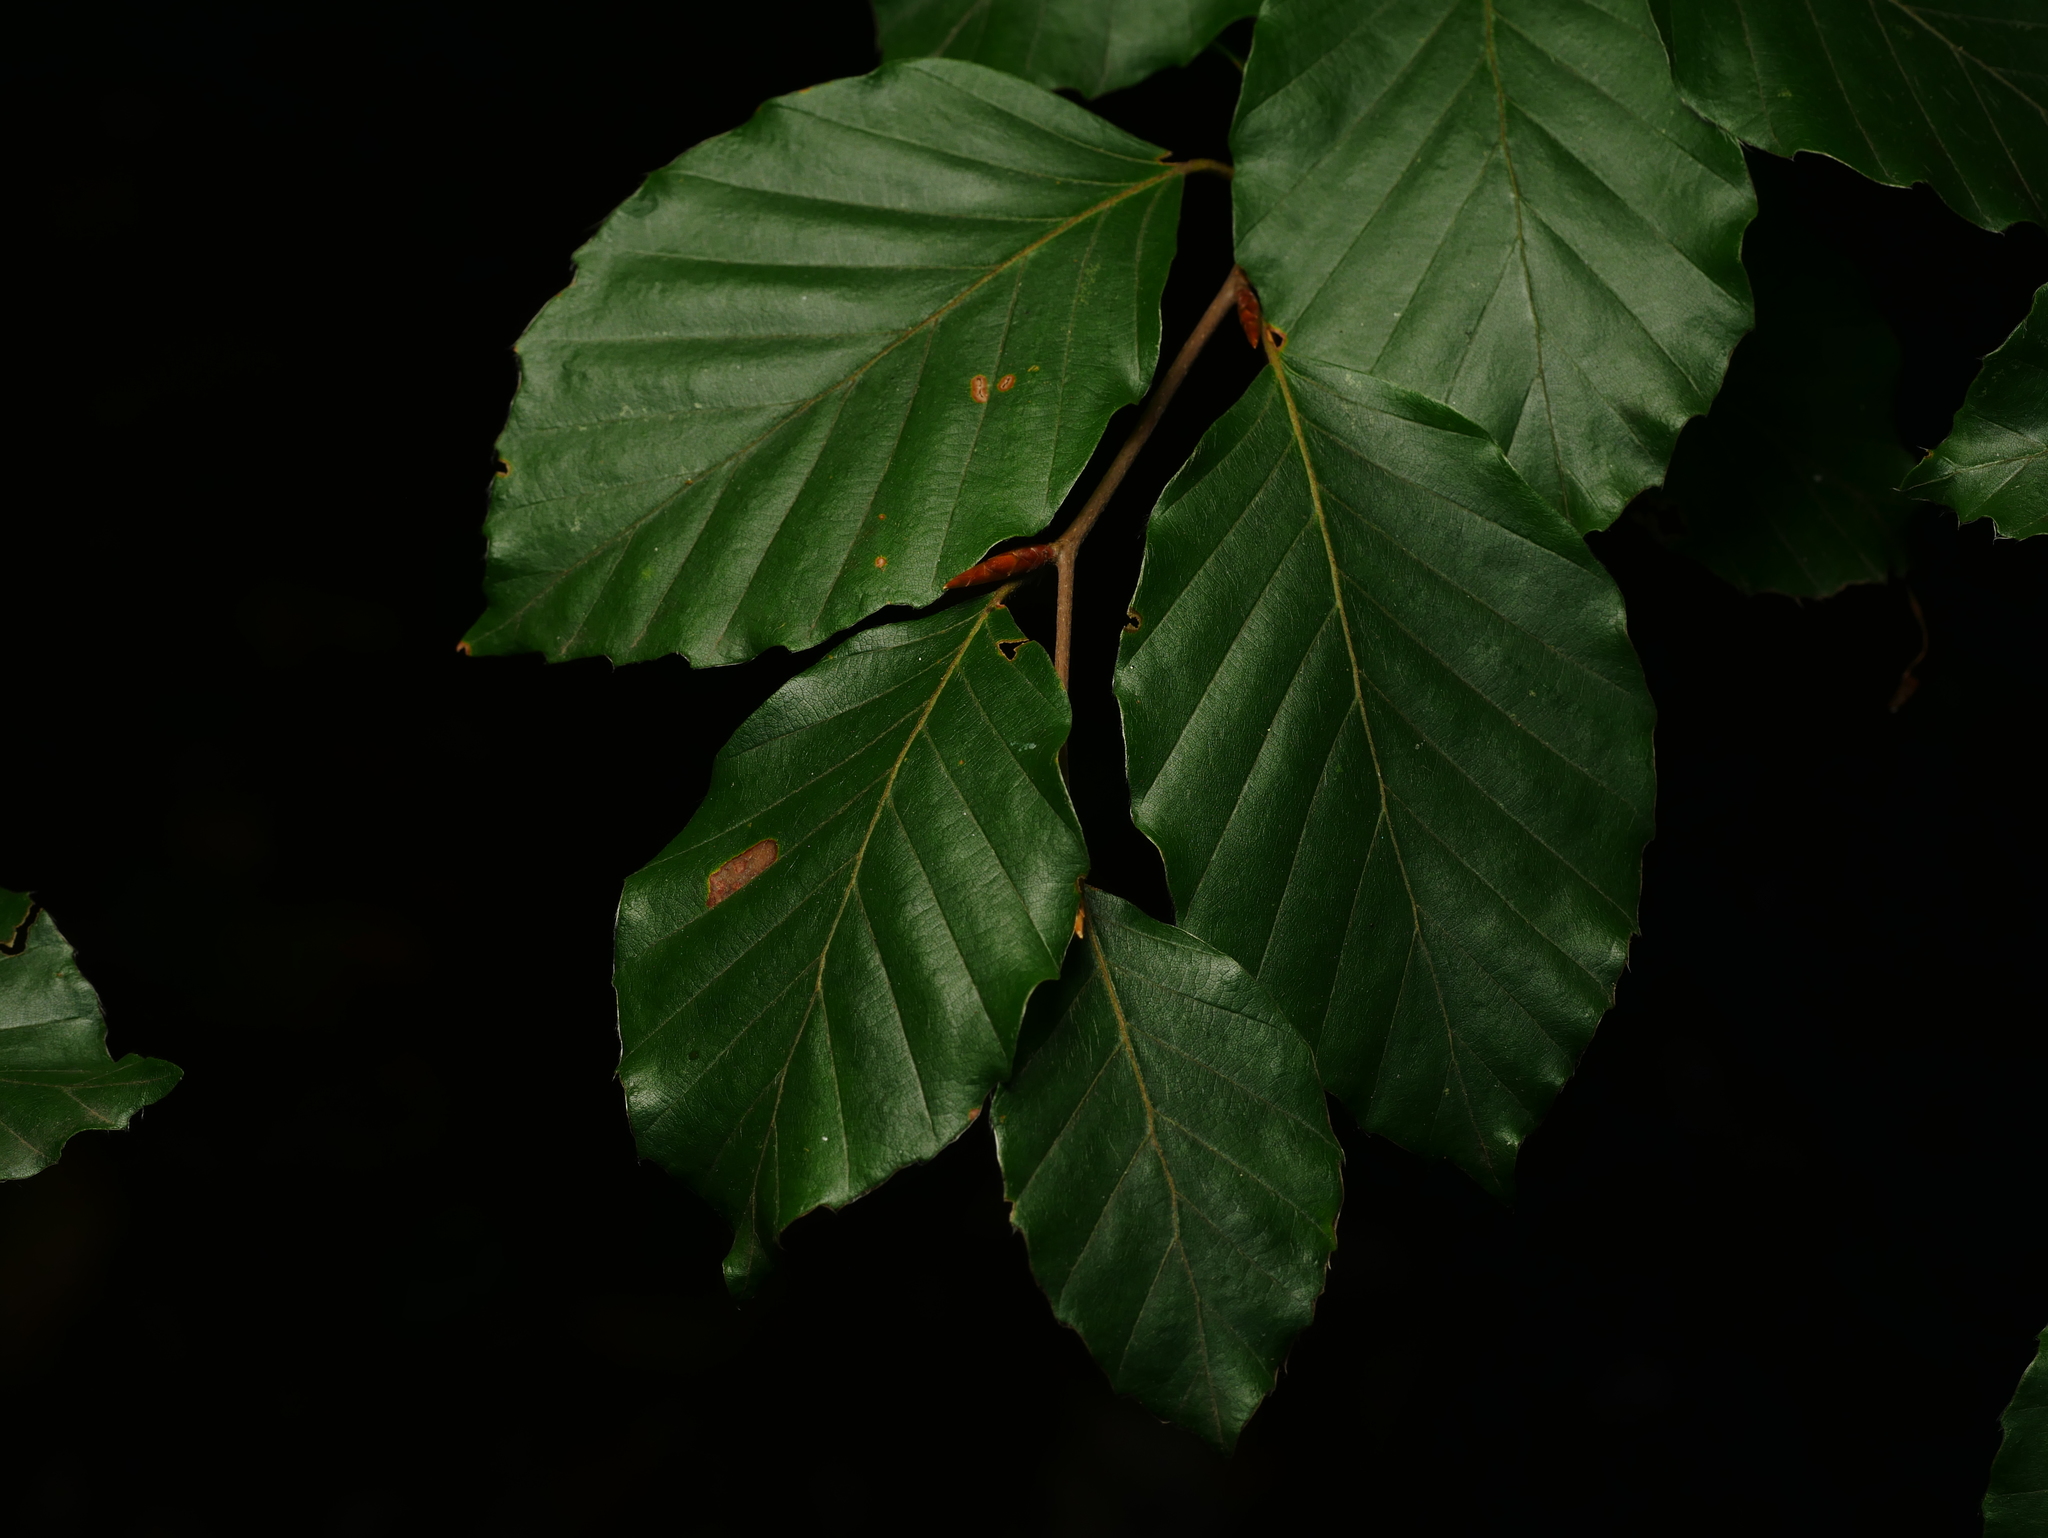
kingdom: Plantae
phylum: Tracheophyta
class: Magnoliopsida
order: Fagales
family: Fagaceae
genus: Fagus
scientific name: Fagus sylvatica
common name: Beech
